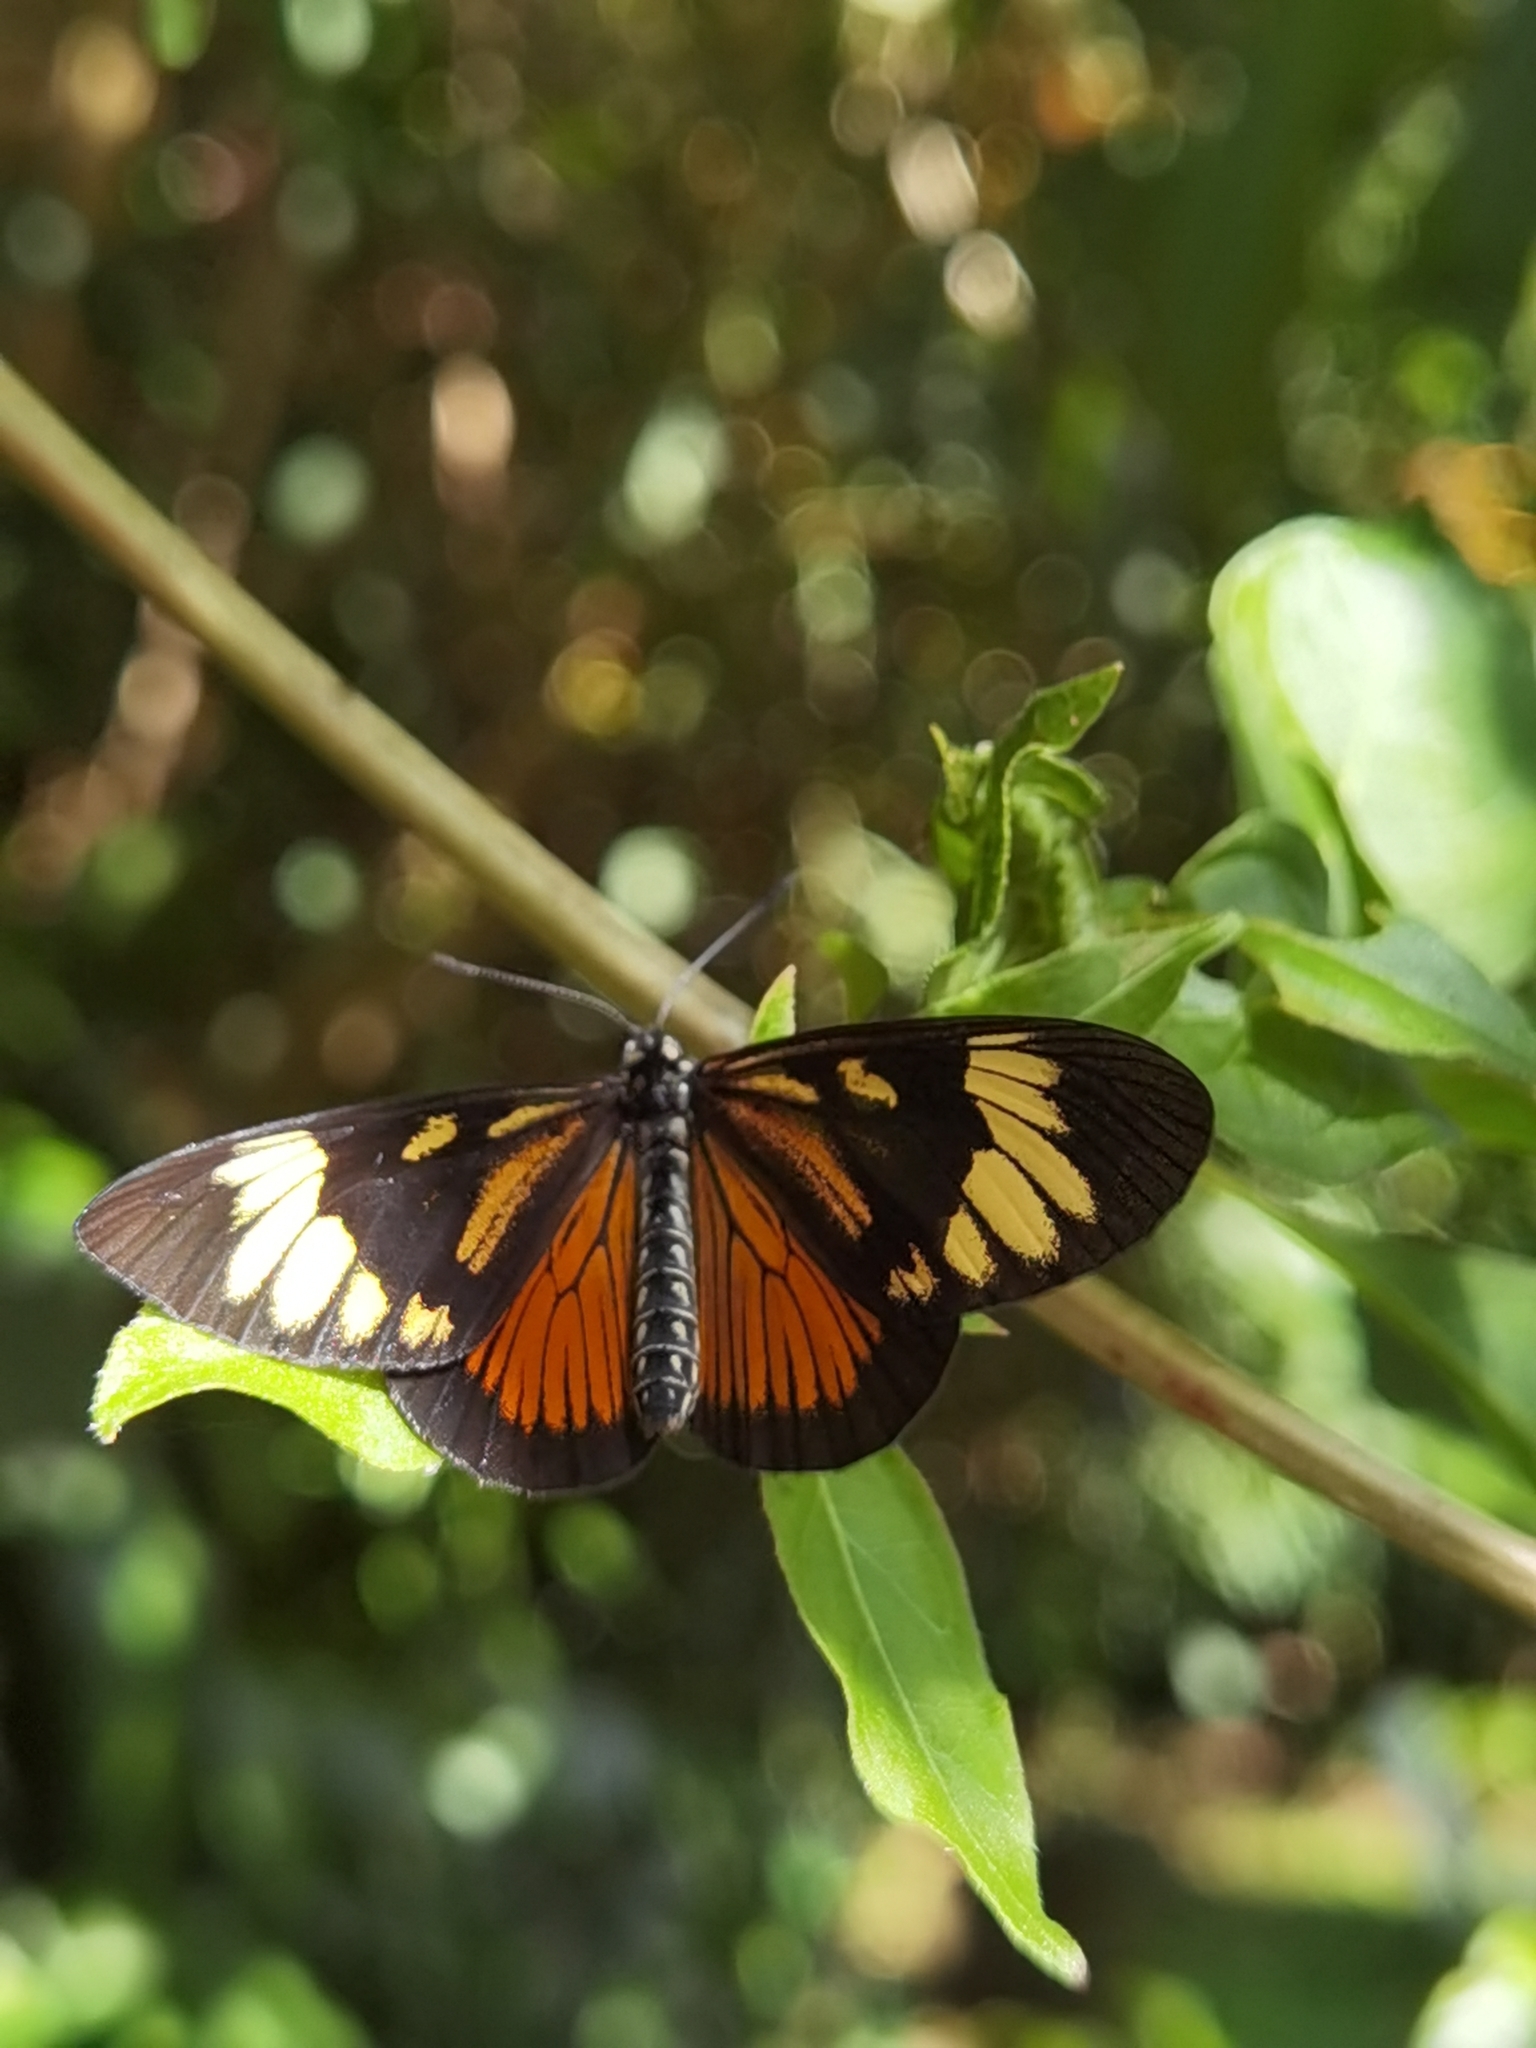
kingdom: Animalia
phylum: Arthropoda
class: Insecta
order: Lepidoptera
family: Nymphalidae
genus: Actinote
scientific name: Actinote anteas
